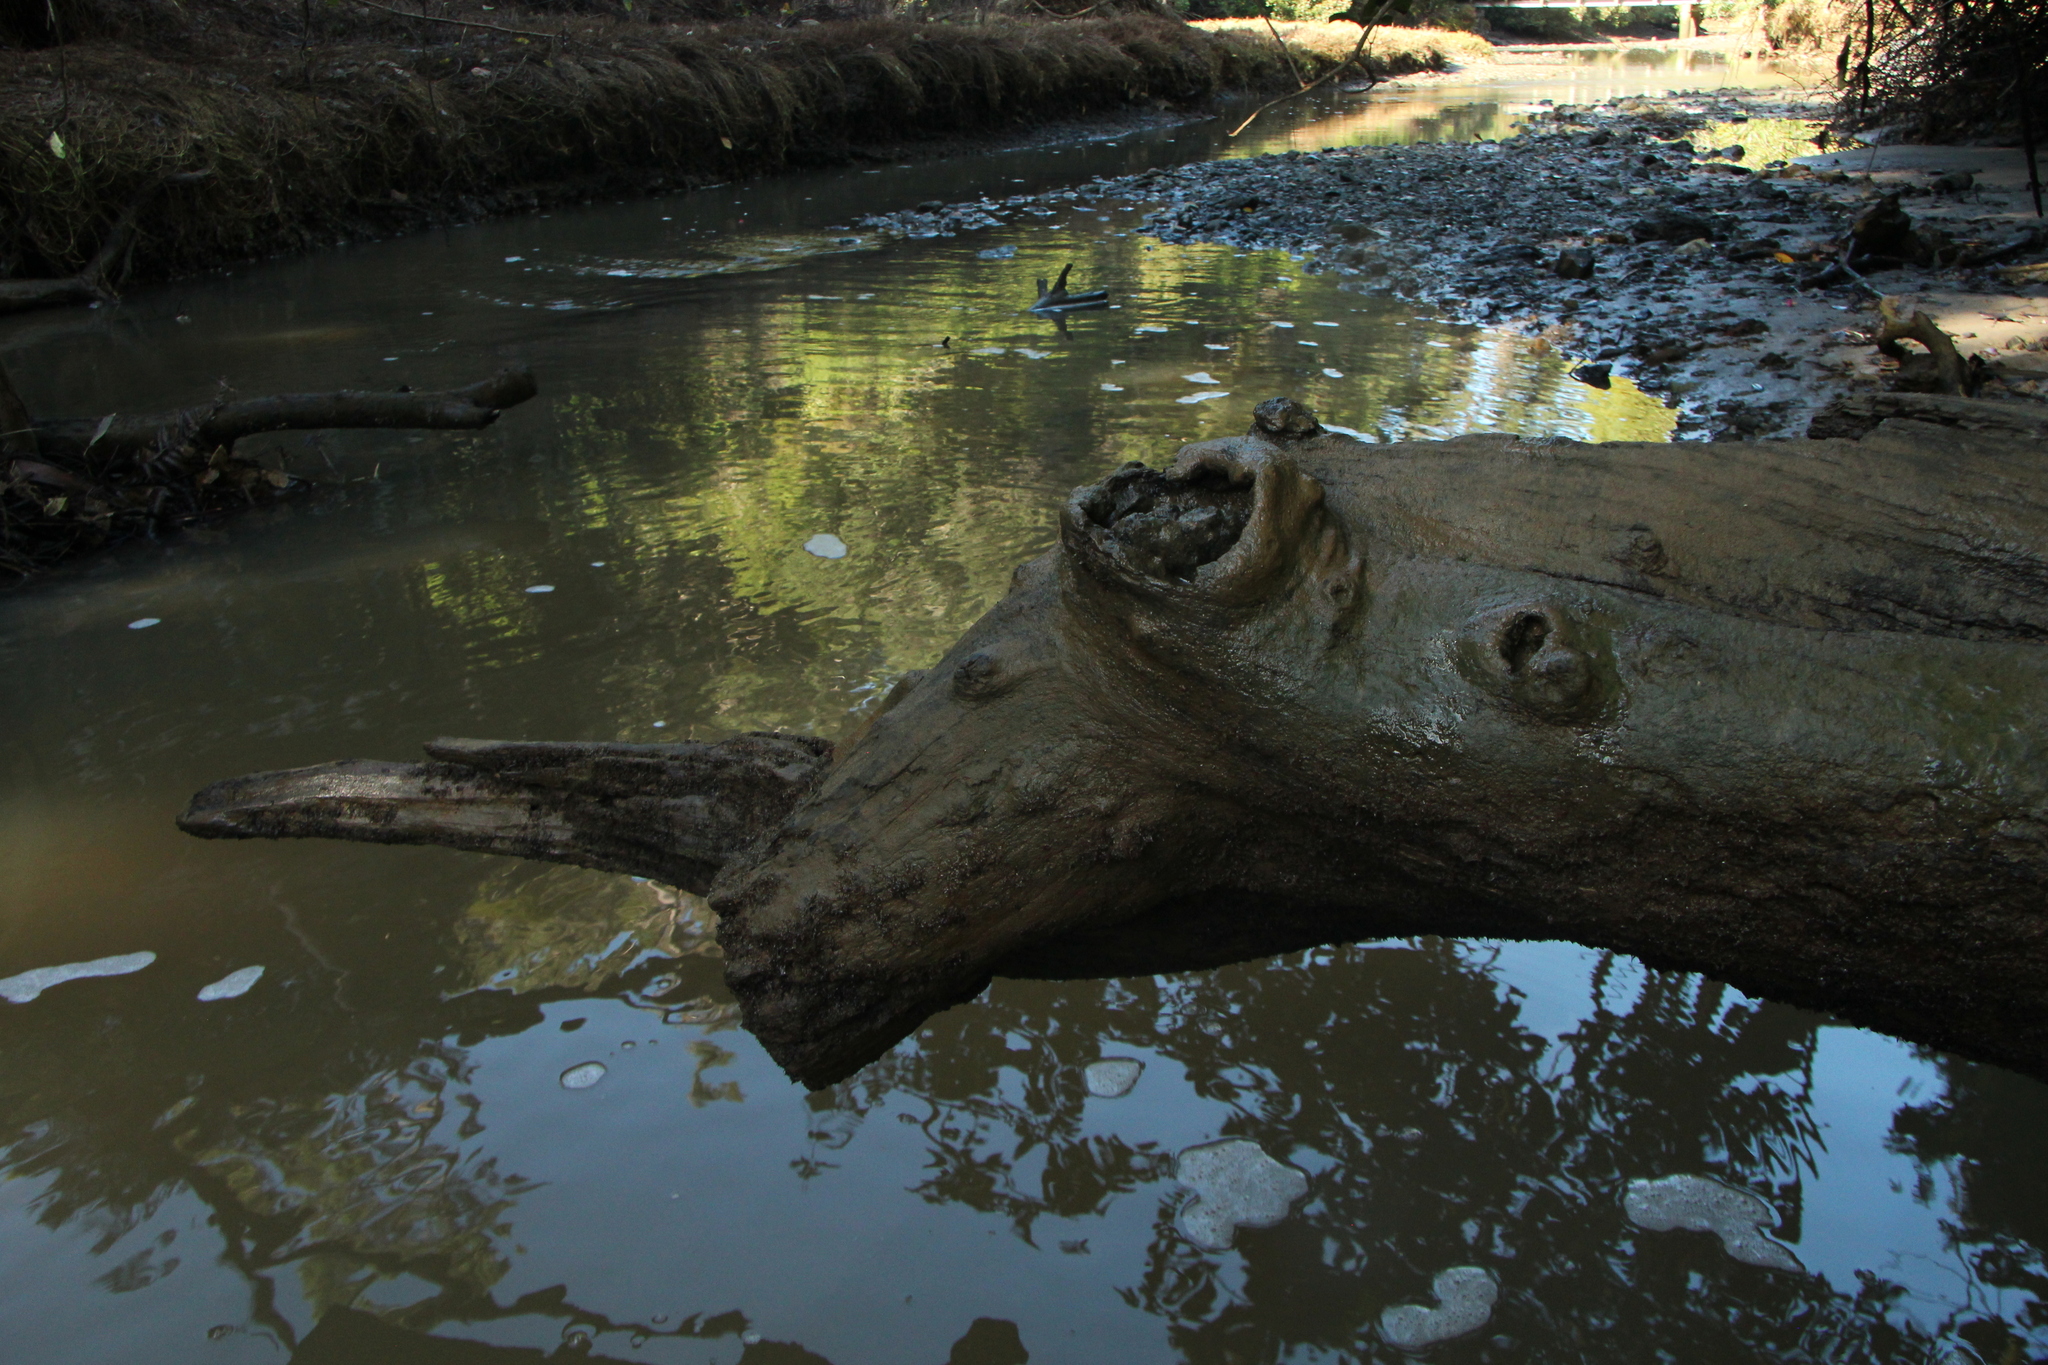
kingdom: Plantae
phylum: Rhodophyta
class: Florideophyceae
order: Ceramiales
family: Delesseriaceae
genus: Caloglossa
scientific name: Caloglossa vieillardii
